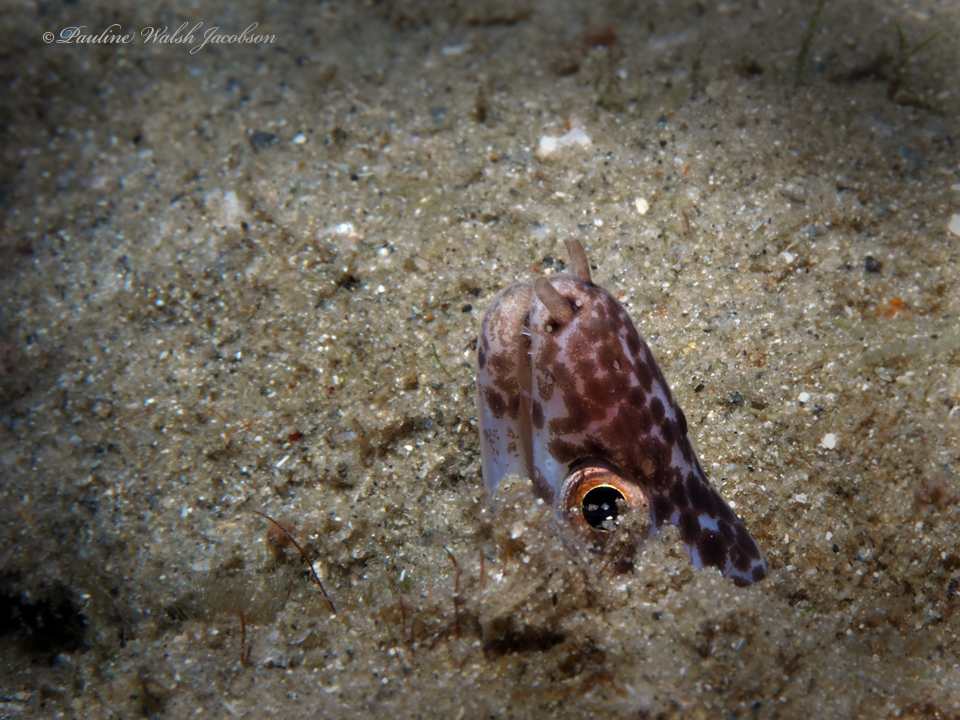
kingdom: Animalia
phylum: Chordata
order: Anguilliformes
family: Muraenidae
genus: Gymnothorax
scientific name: Gymnothorax moringa
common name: Spotted moray
